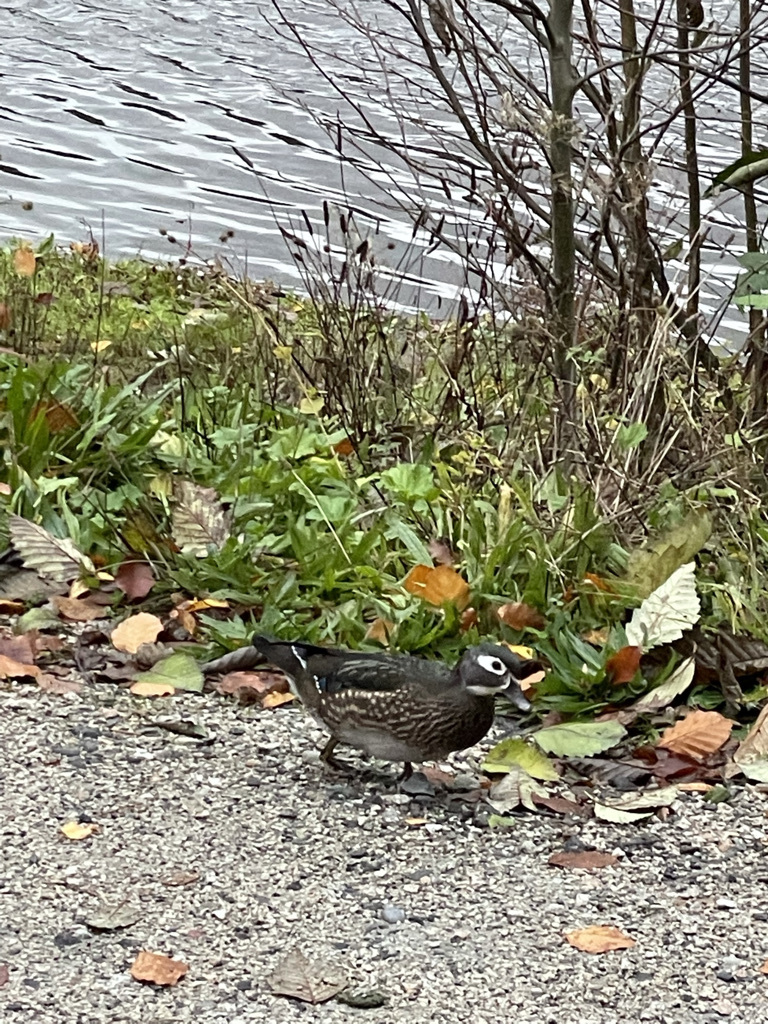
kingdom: Animalia
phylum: Chordata
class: Aves
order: Anseriformes
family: Anatidae
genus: Aix
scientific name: Aix sponsa
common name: Wood duck
